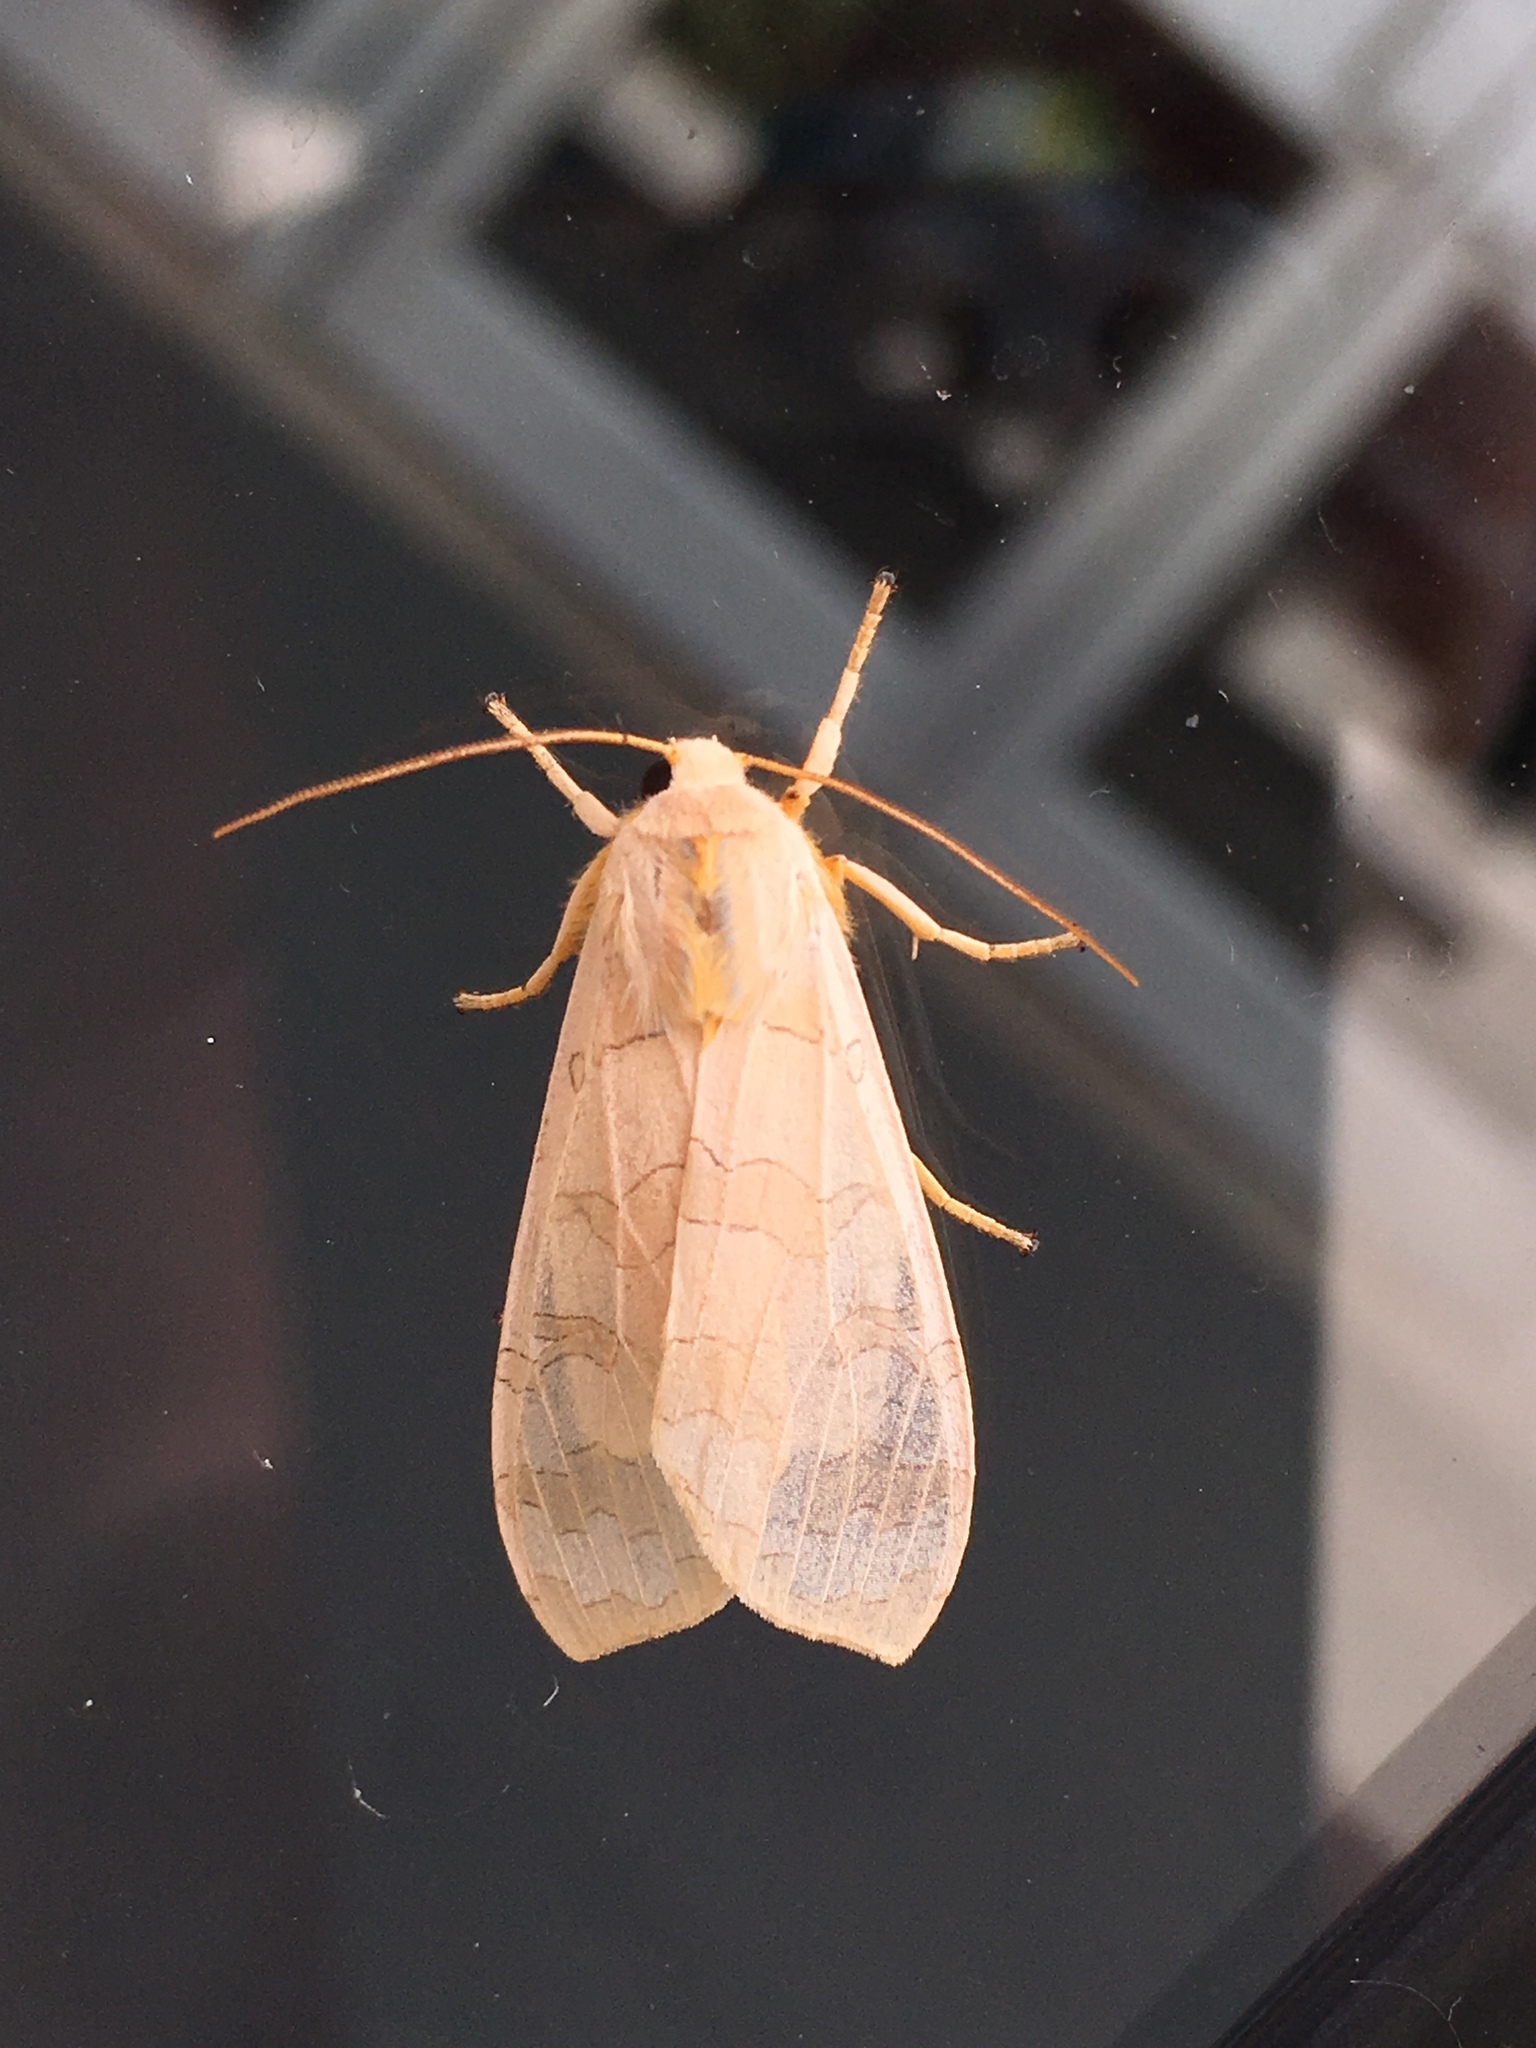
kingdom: Animalia
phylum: Arthropoda
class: Insecta
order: Lepidoptera
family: Erebidae
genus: Halysidota
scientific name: Halysidota tessellaris
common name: Banded tussock moth
